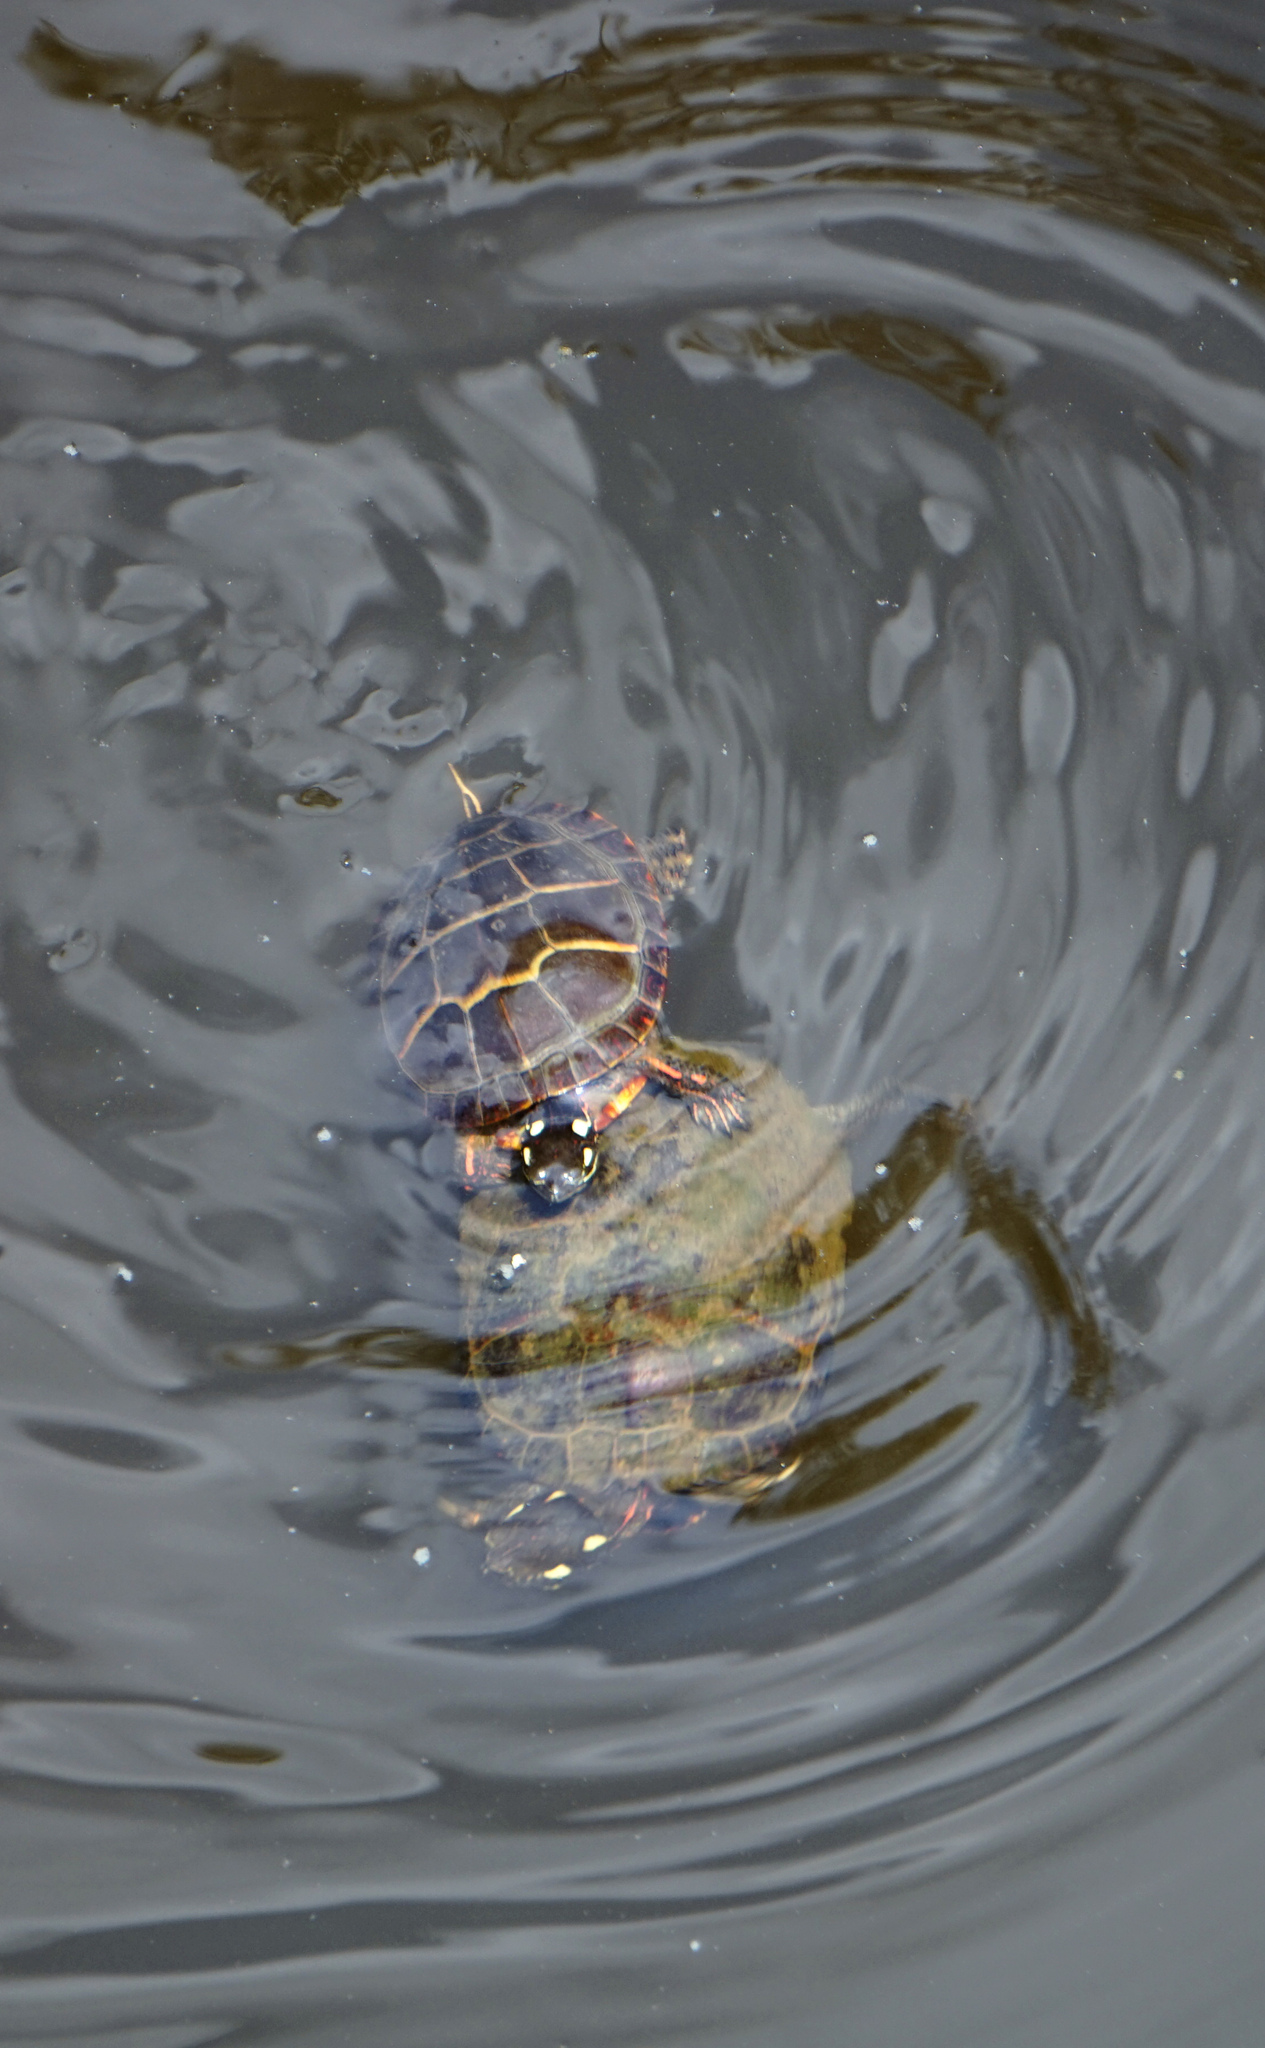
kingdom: Animalia
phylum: Chordata
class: Testudines
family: Emydidae
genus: Chrysemys
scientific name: Chrysemys picta
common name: Painted turtle
